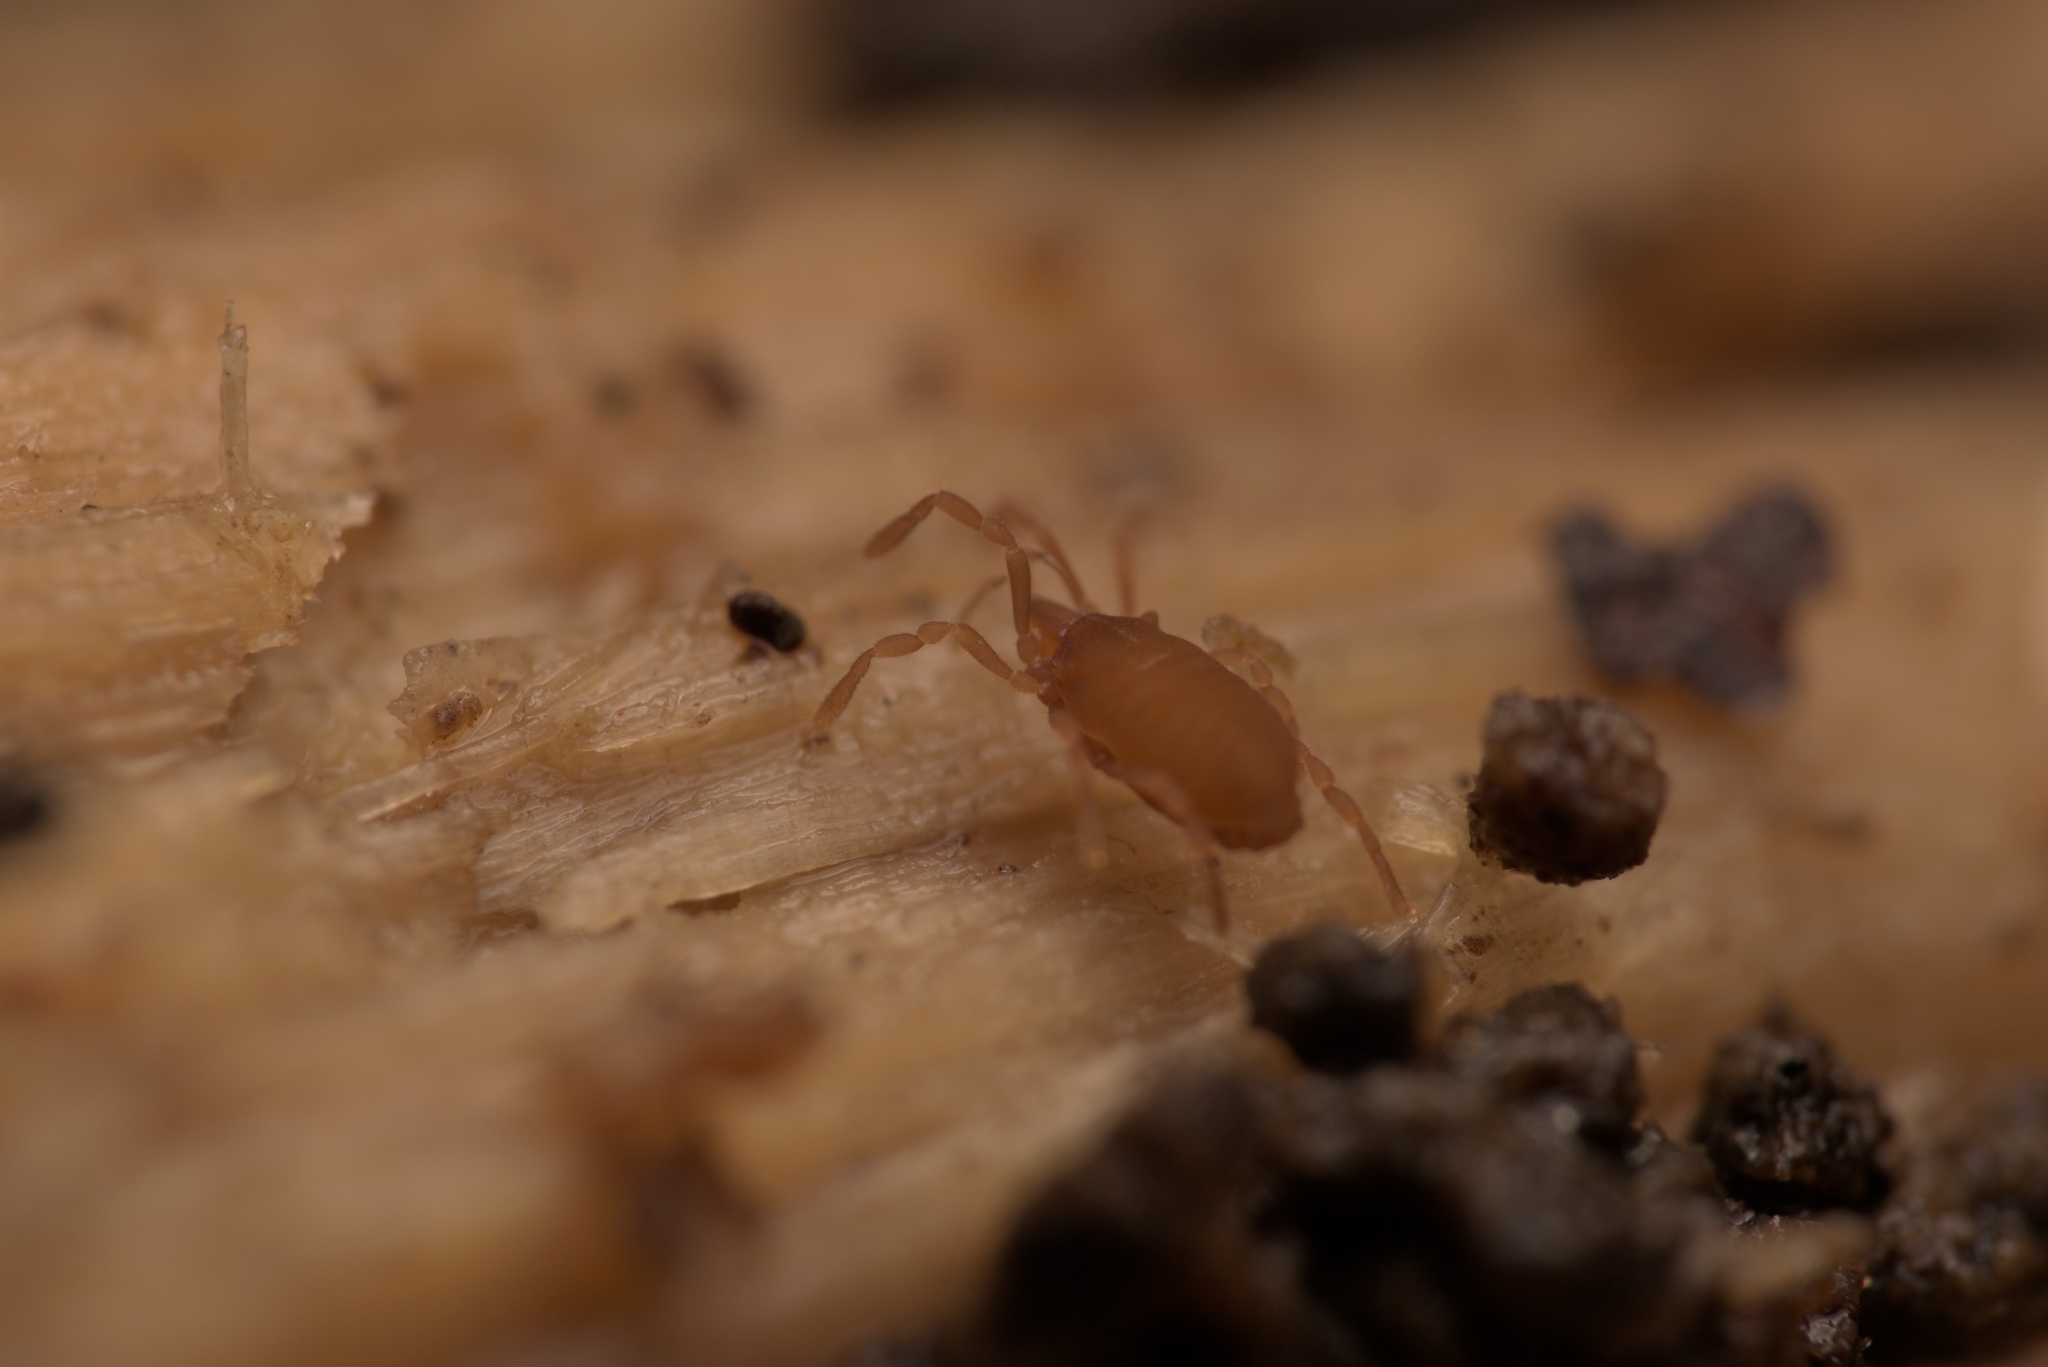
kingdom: Animalia
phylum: Arthropoda
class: Arachnida
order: Opiliones
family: Sironidae
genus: Siro
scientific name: Siro rubens
